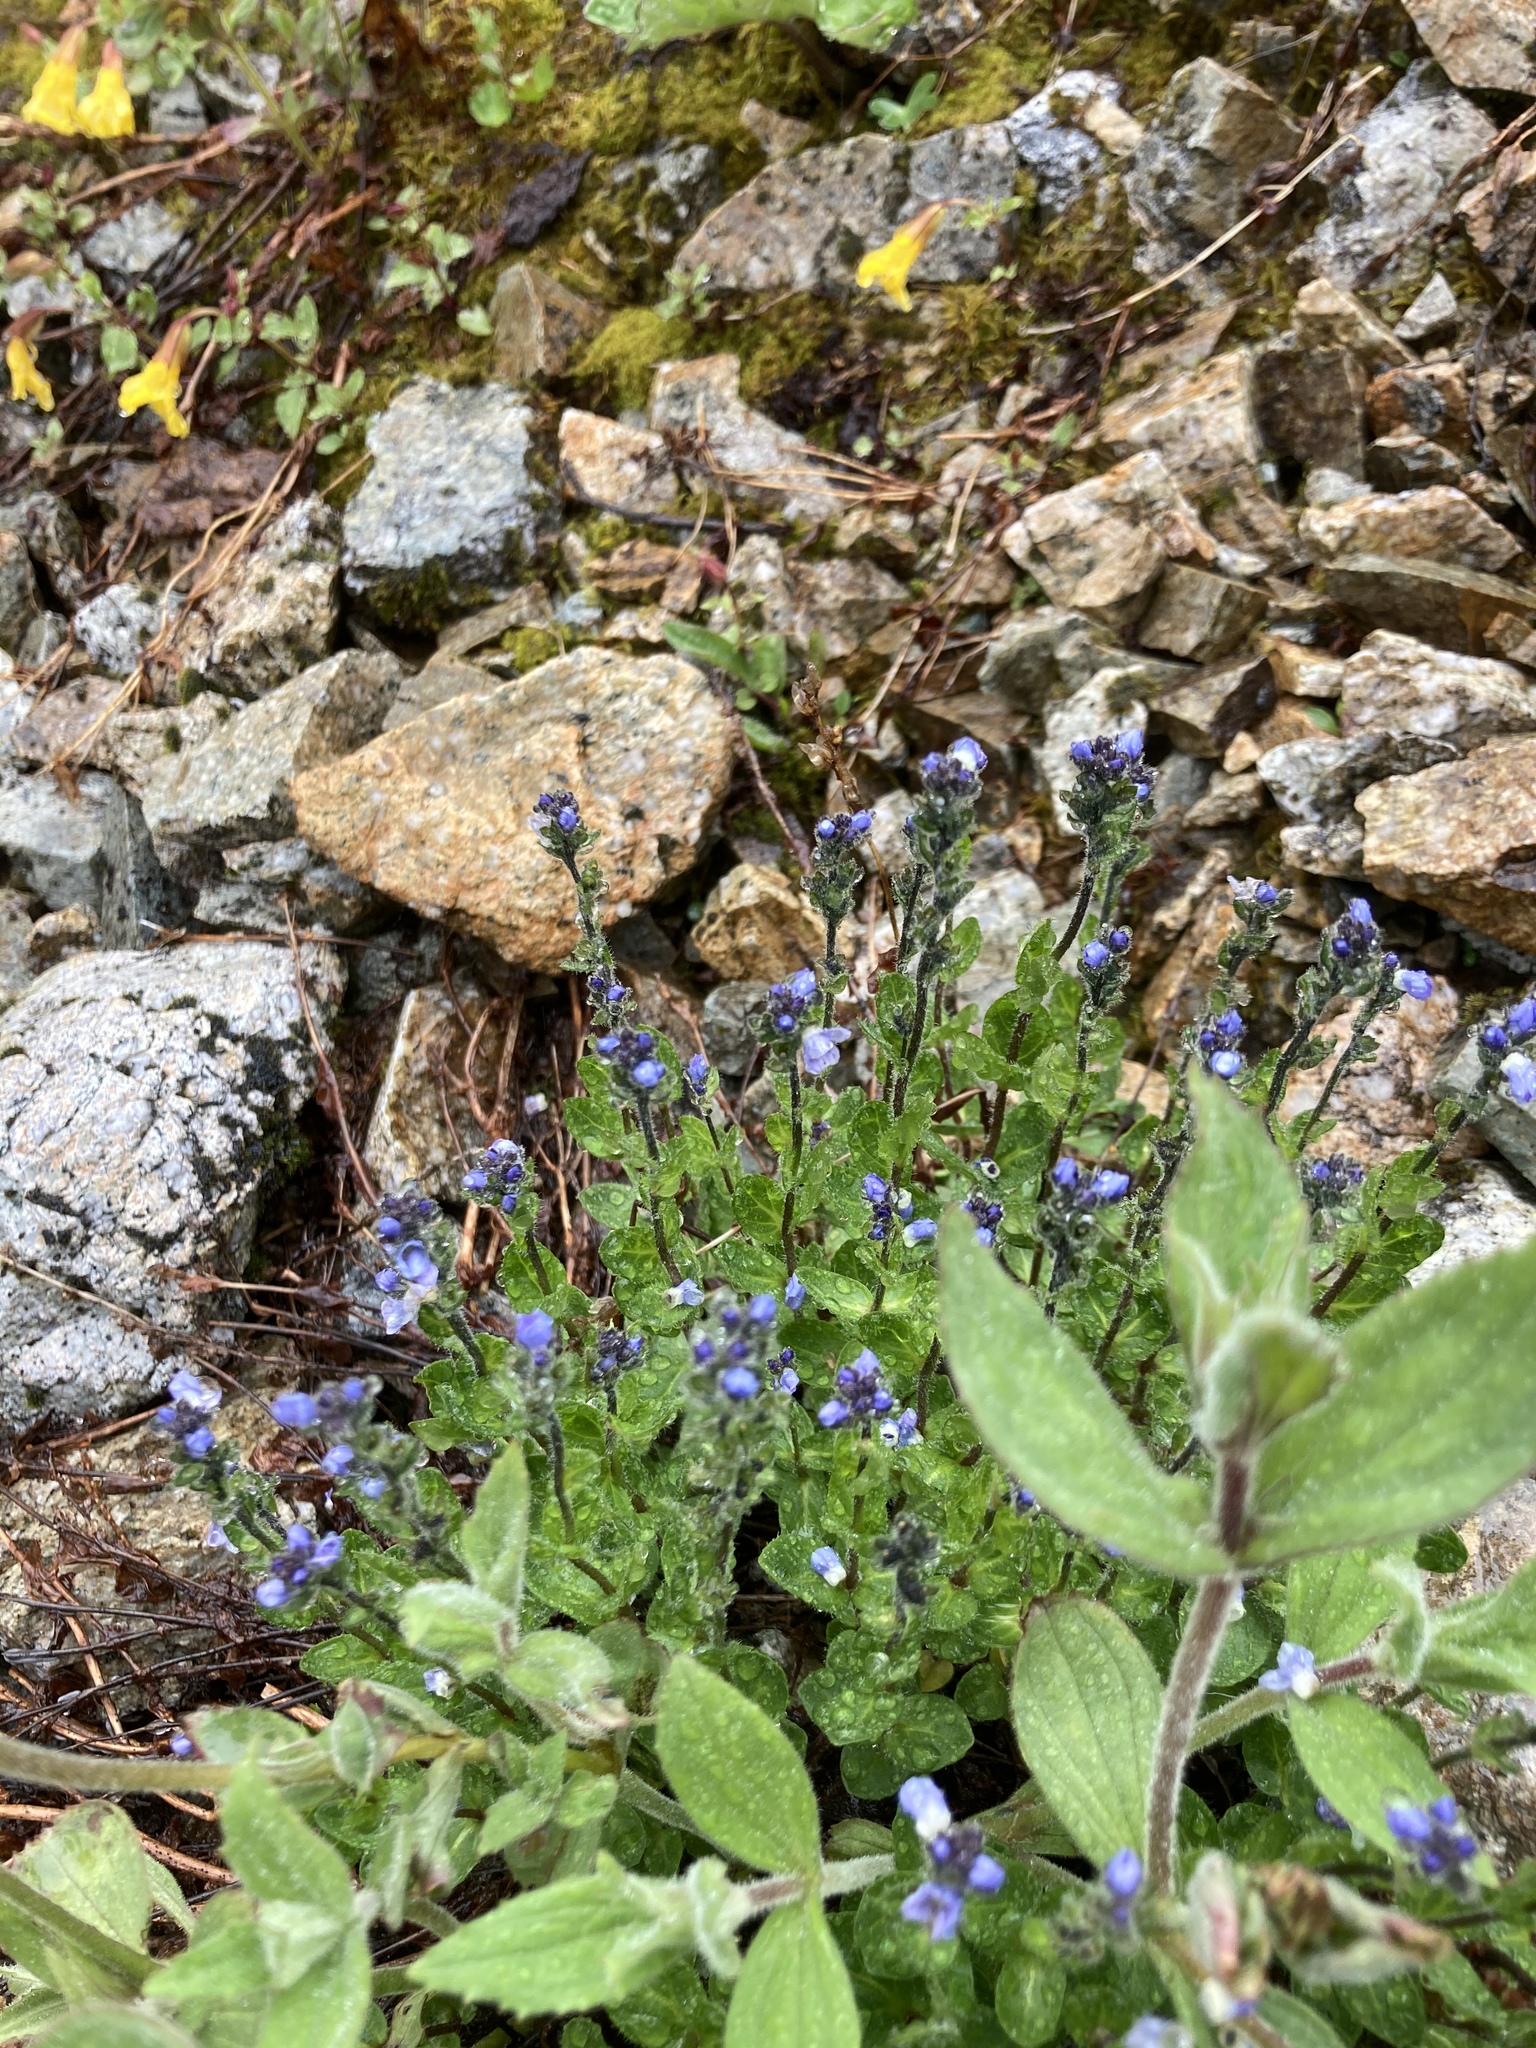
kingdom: Plantae
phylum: Tracheophyta
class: Magnoliopsida
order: Lamiales
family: Plantaginaceae
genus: Veronica
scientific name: Veronica wormskjoldii
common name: American alpine speedwell
